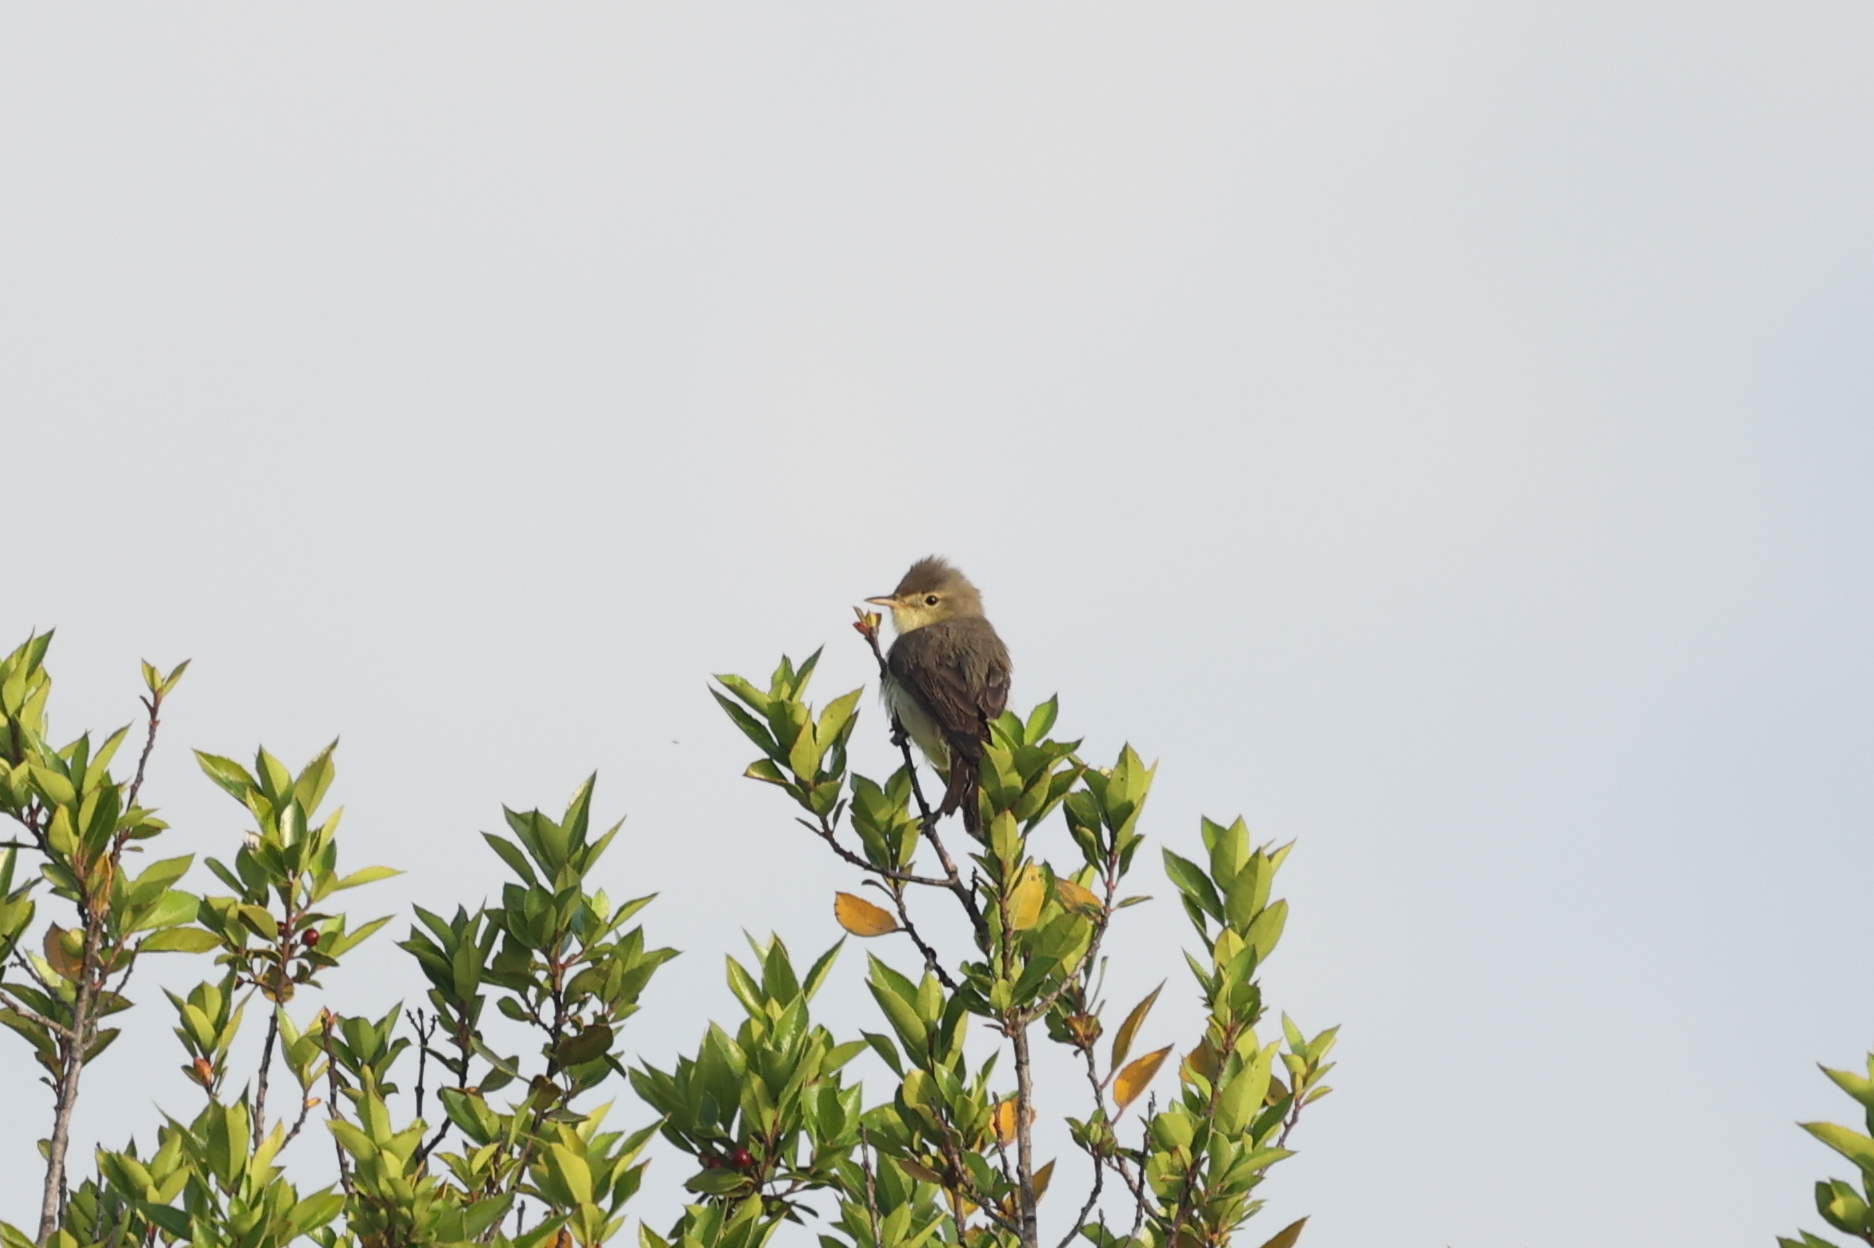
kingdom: Animalia
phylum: Chordata
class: Aves
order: Passeriformes
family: Acrocephalidae
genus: Hippolais
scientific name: Hippolais polyglotta
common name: Melodious warbler
